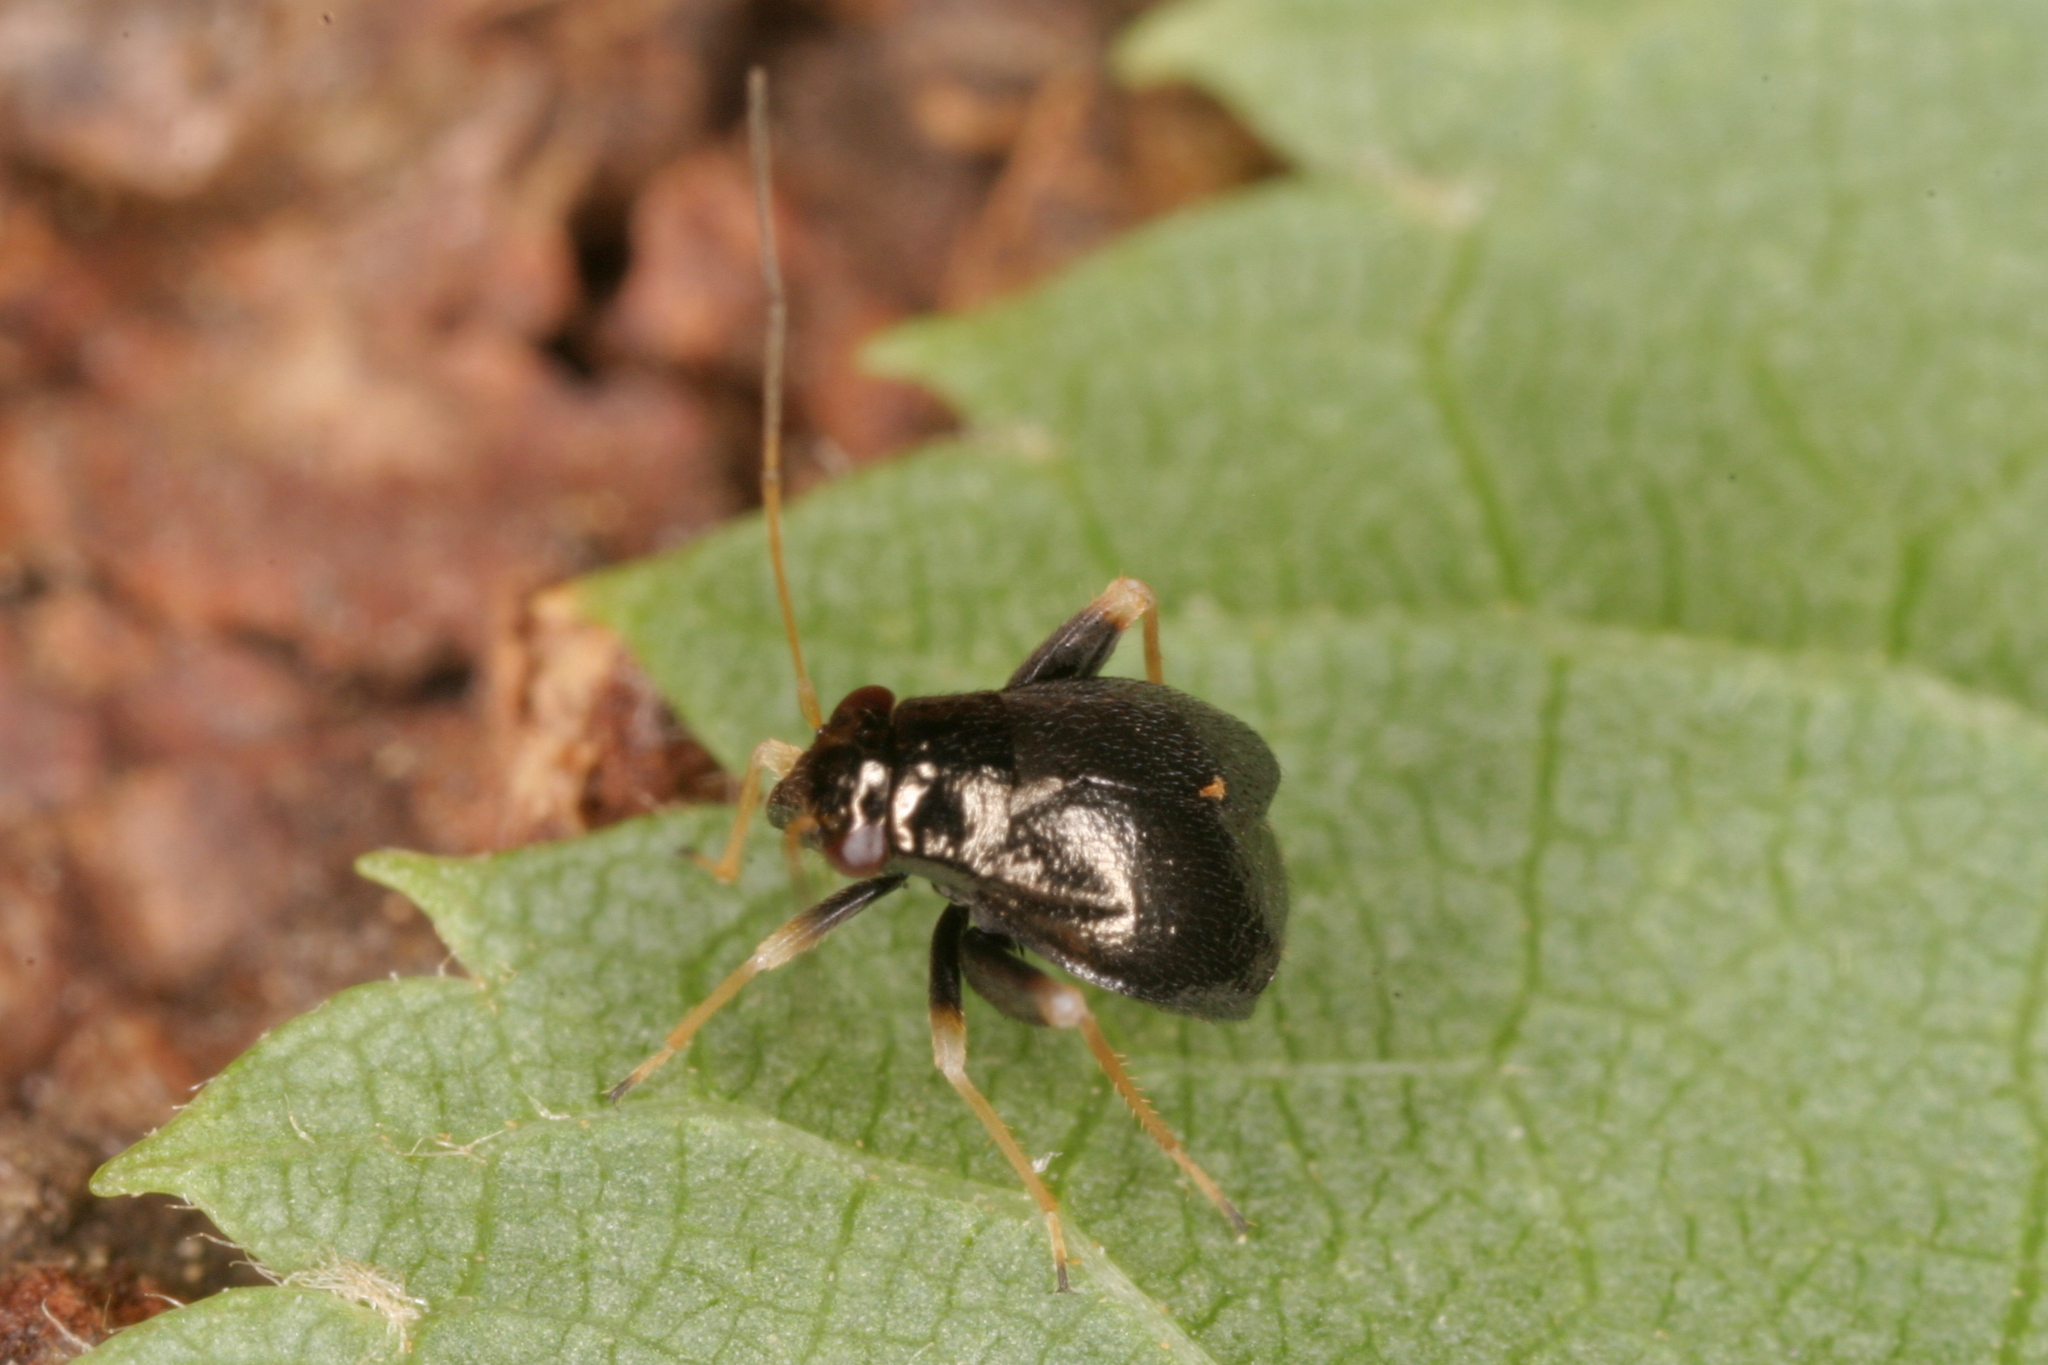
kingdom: Animalia
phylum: Arthropoda
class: Insecta
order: Hemiptera
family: Miridae
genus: Halticus
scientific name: Halticus apterus
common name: Fleahopper
